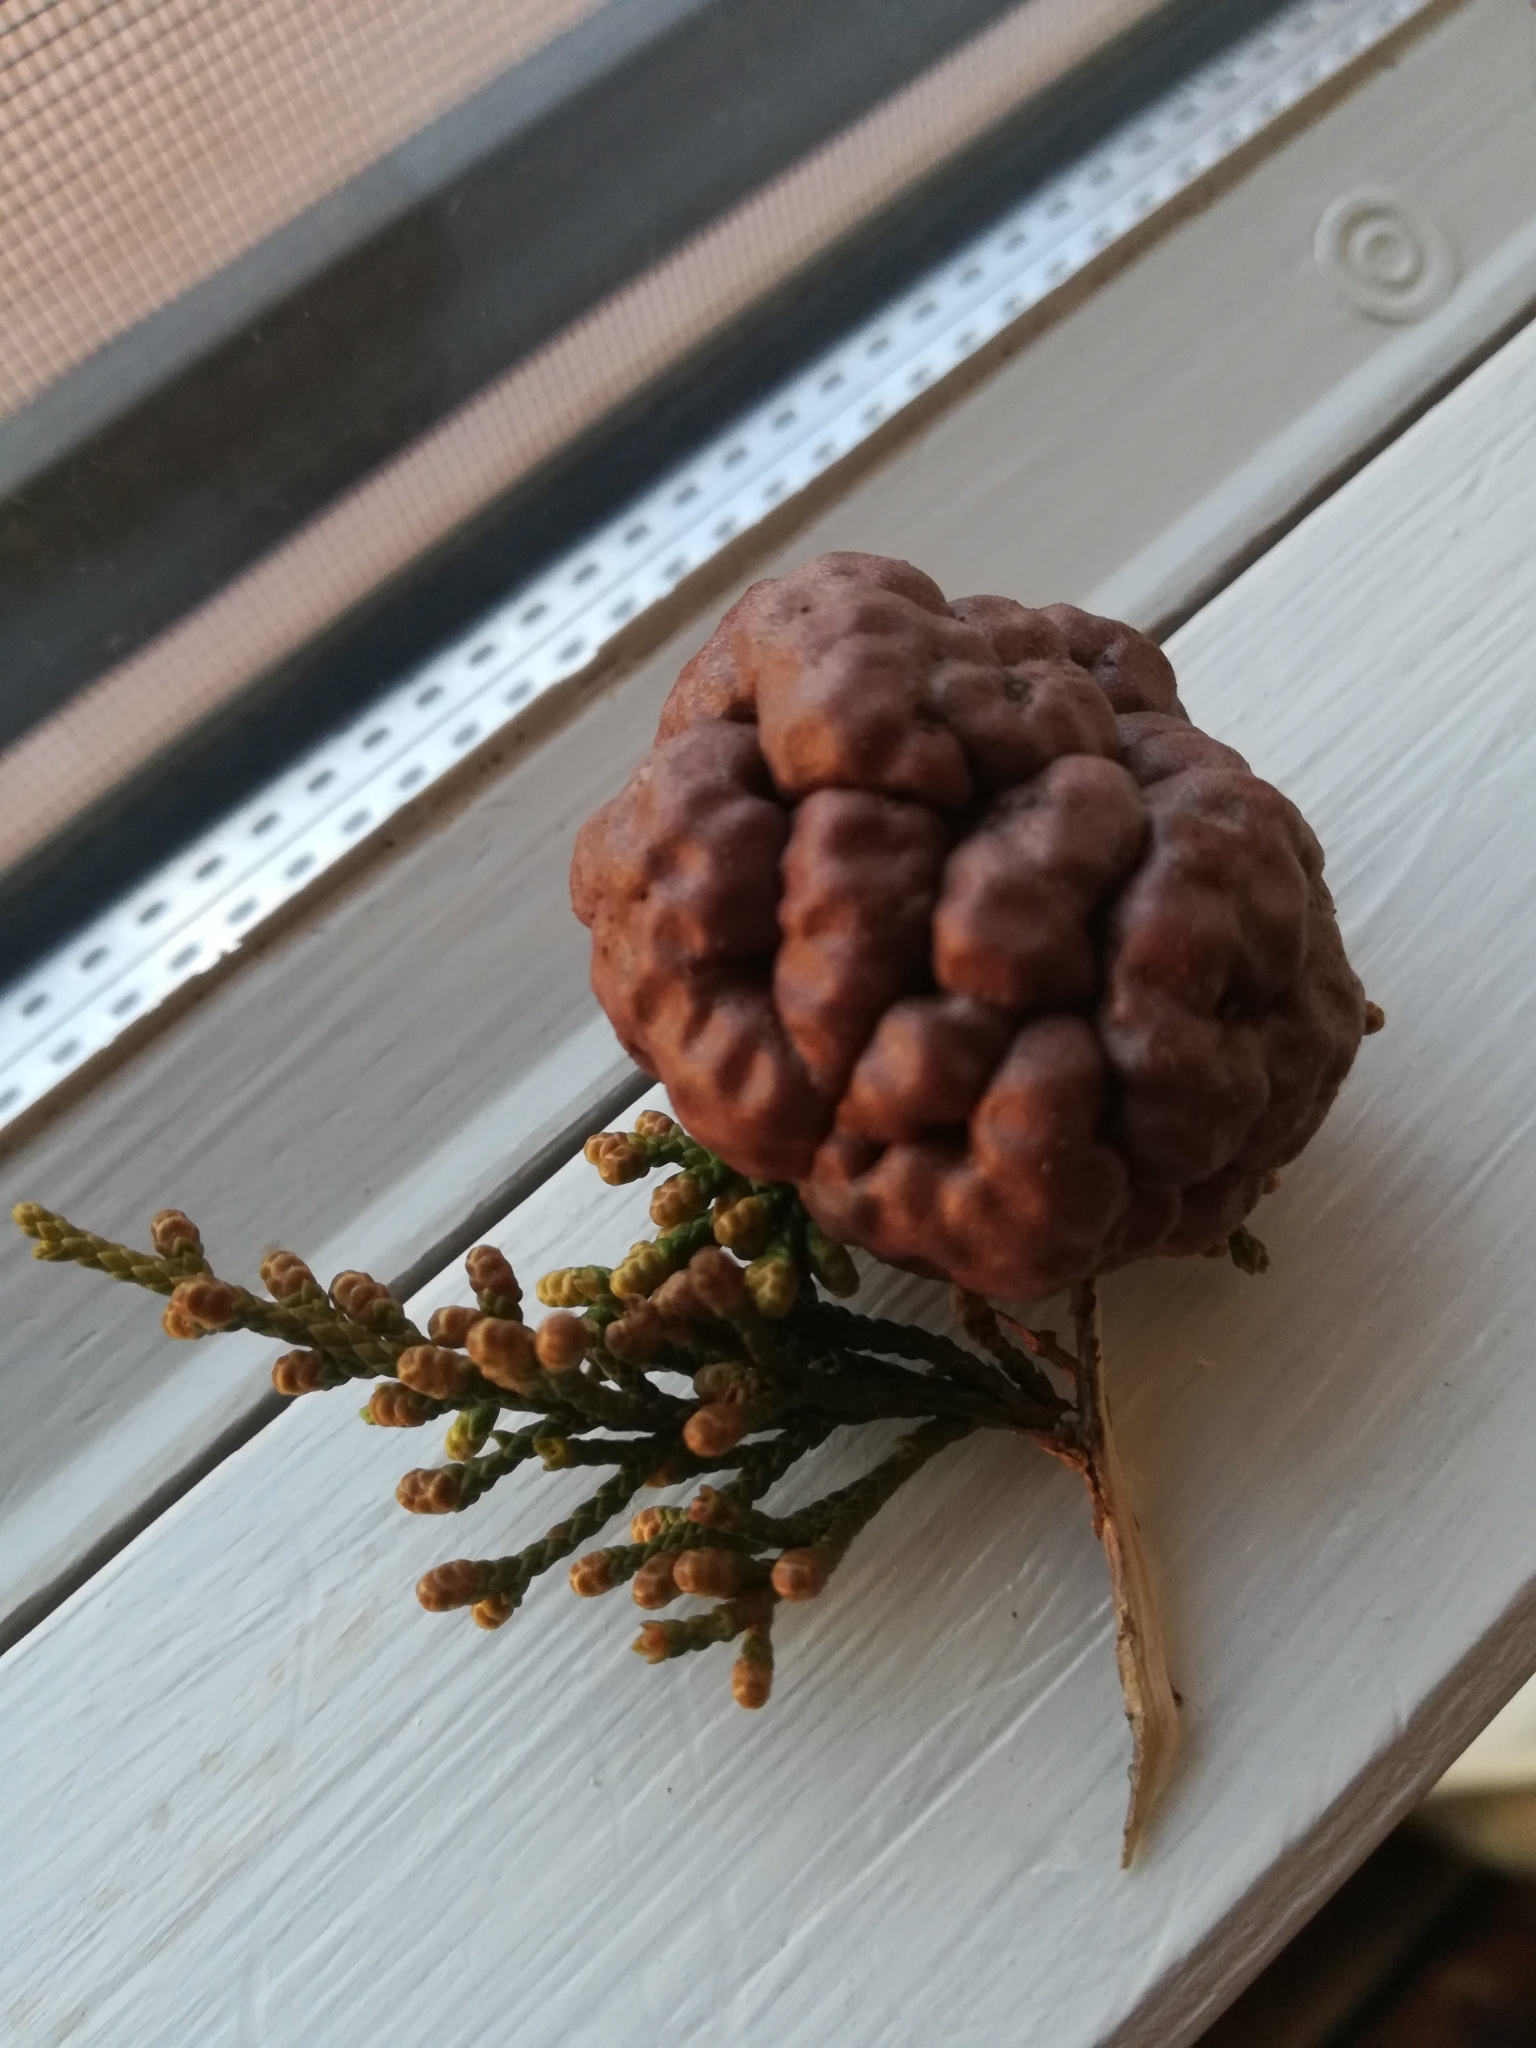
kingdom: Fungi
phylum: Basidiomycota
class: Pucciniomycetes
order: Pucciniales
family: Gymnosporangiaceae
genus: Gymnosporangium
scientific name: Gymnosporangium juniperi-virginianae
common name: Juniper-apple rust
